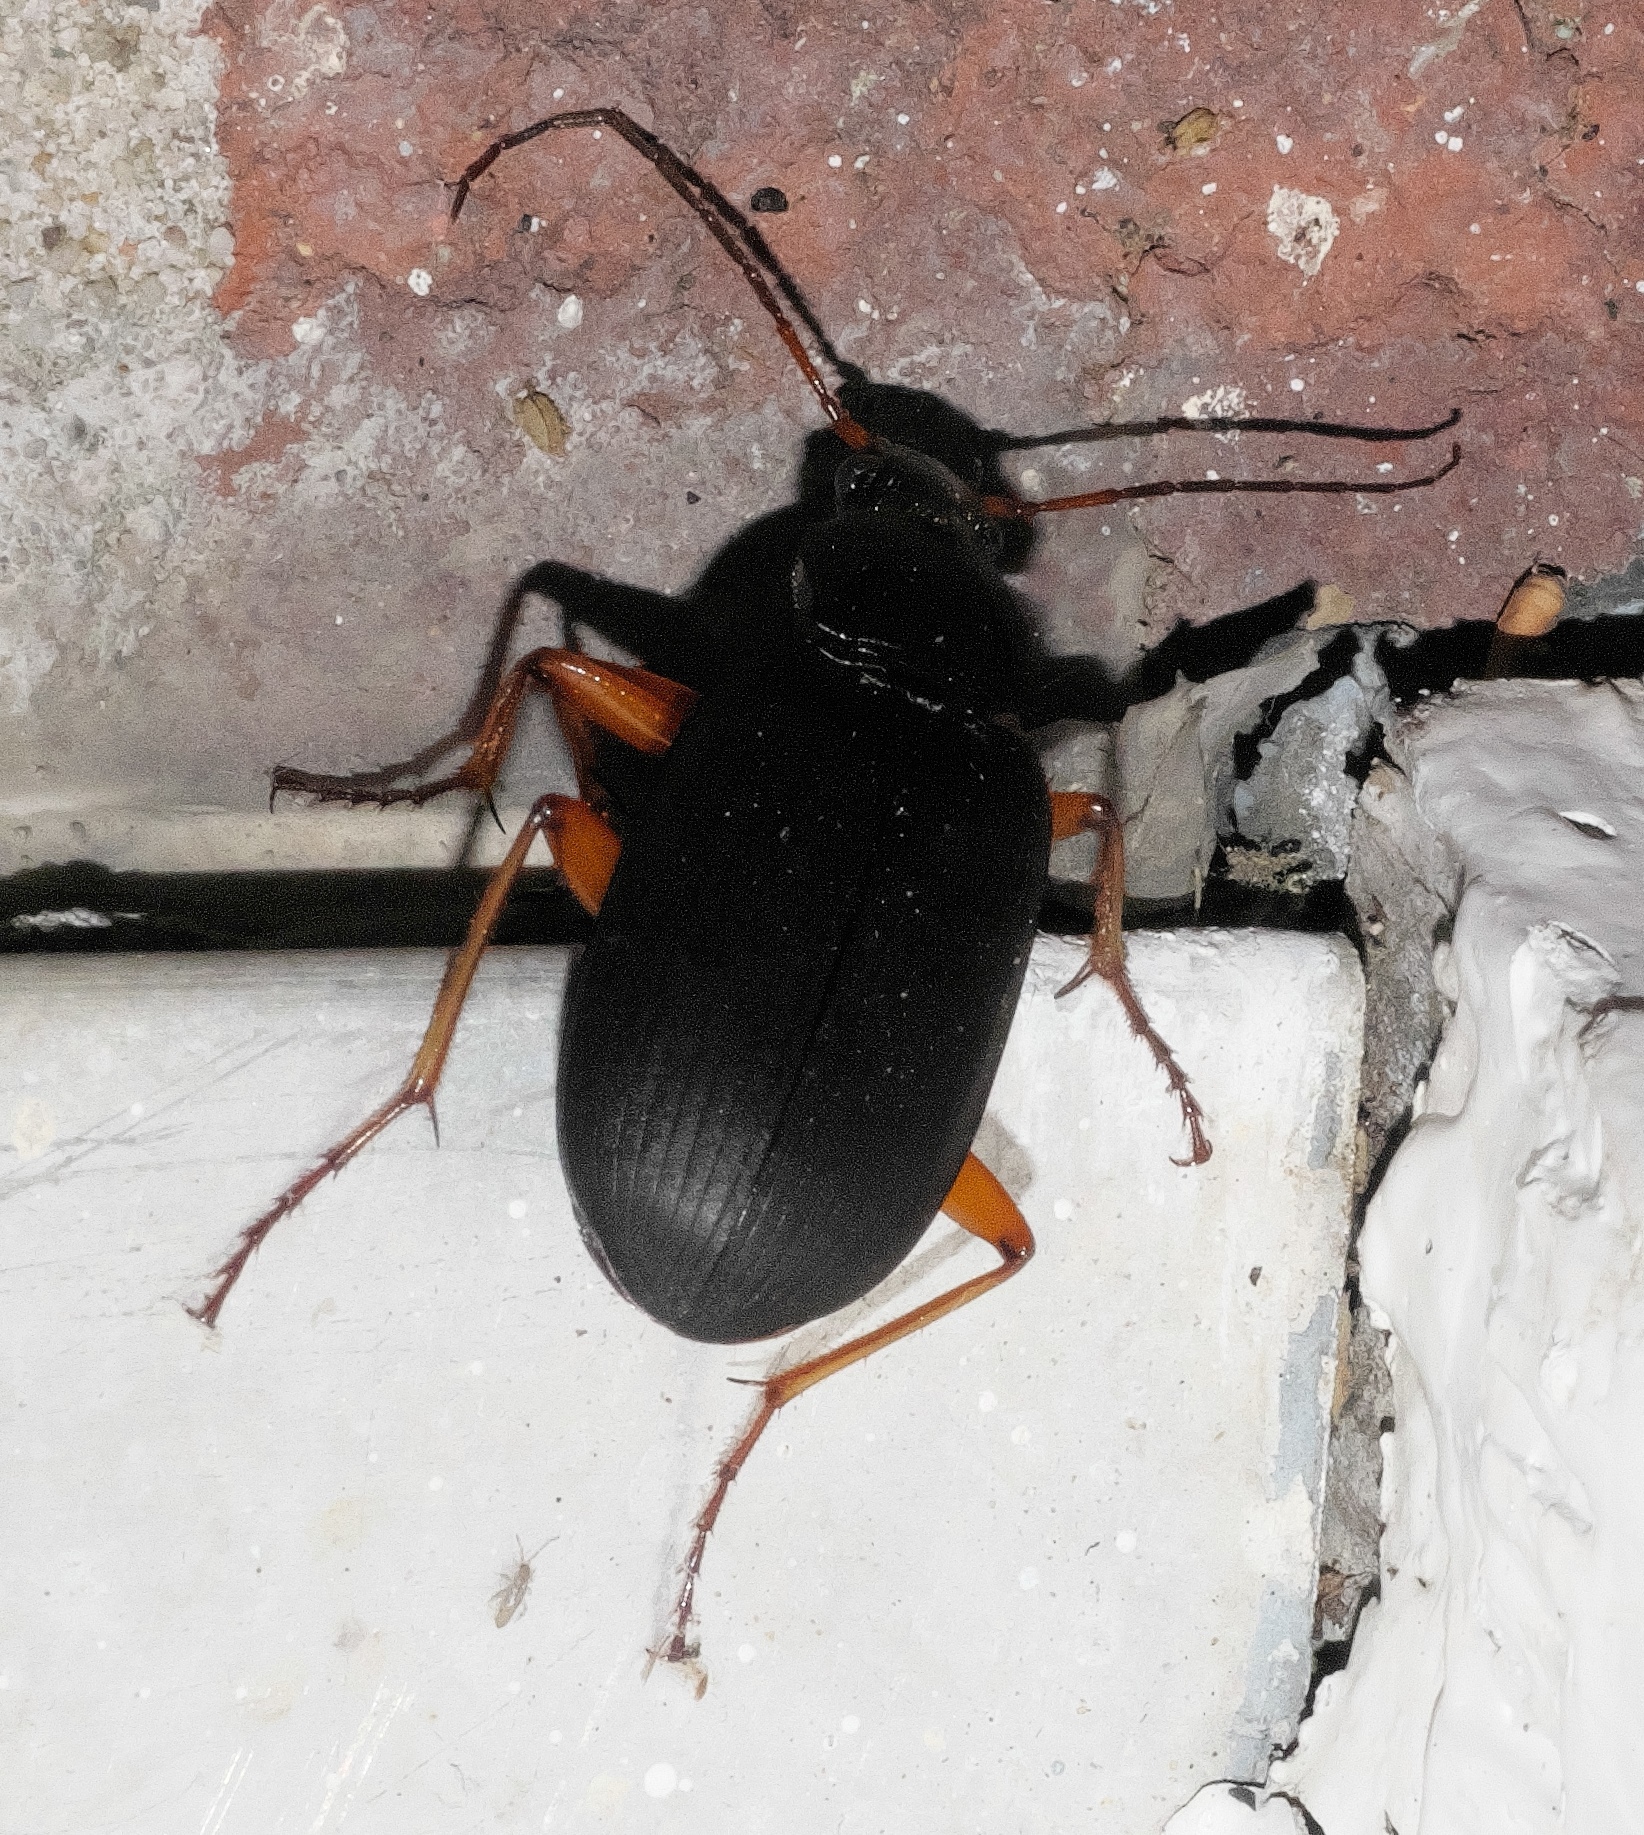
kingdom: Animalia
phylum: Arthropoda
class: Insecta
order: Coleoptera
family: Carabidae
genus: Chlaenius
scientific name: Chlaenius laticollis
